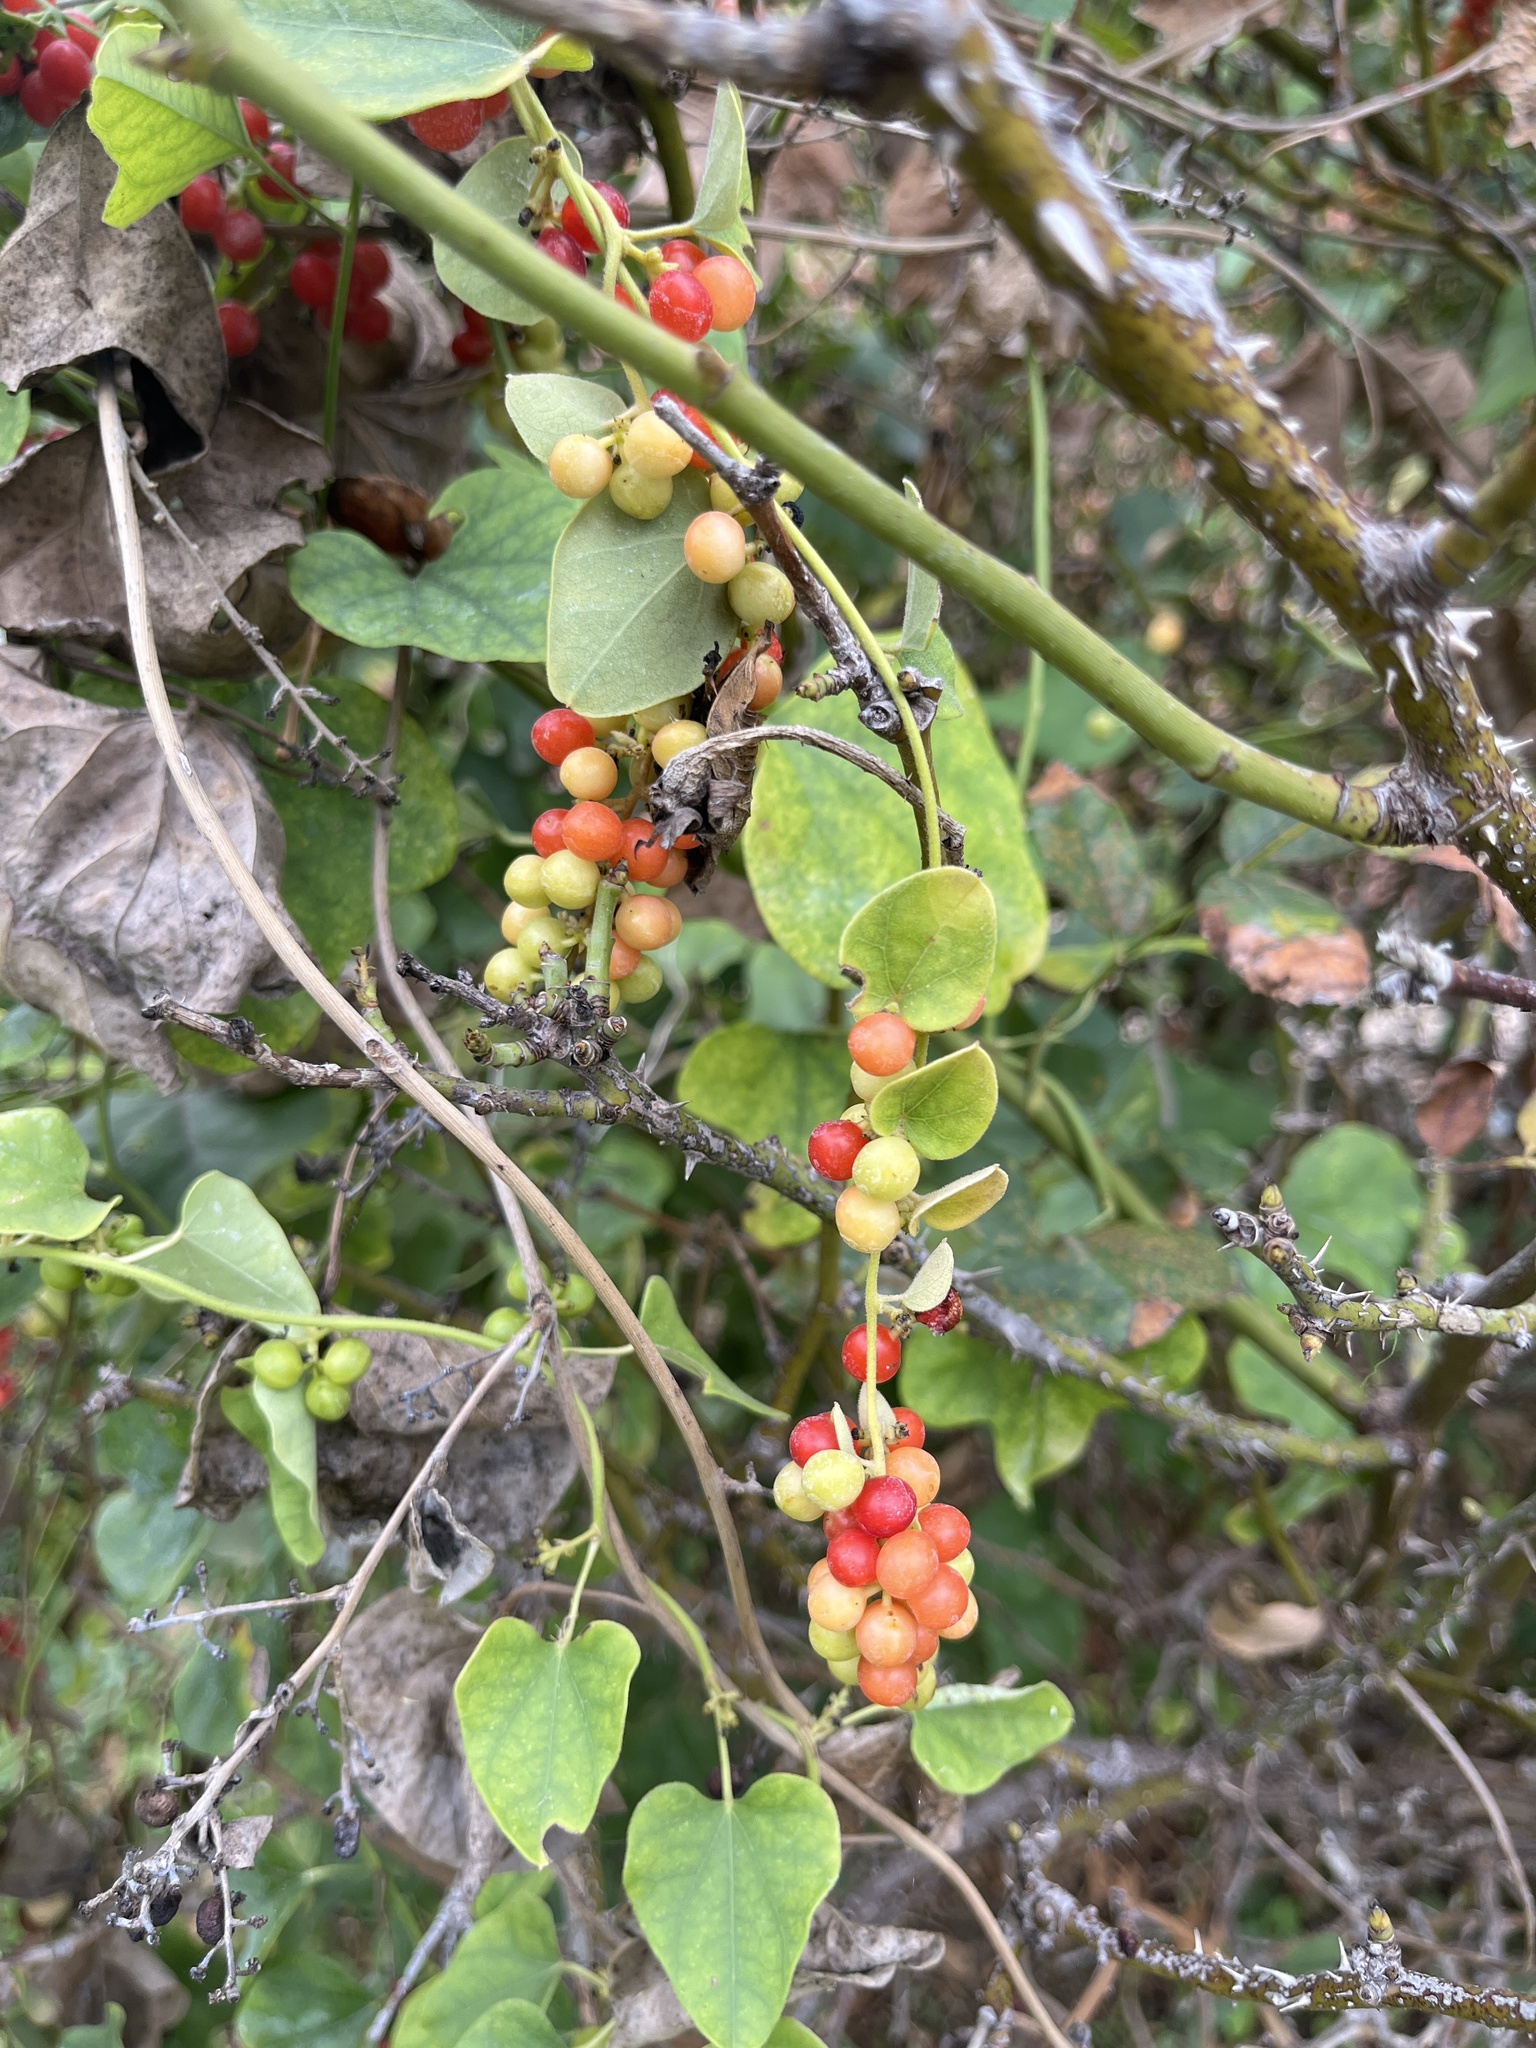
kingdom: Plantae
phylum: Tracheophyta
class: Magnoliopsida
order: Ranunculales
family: Menispermaceae
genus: Cocculus
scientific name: Cocculus carolinus
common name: Carolina moonseed
